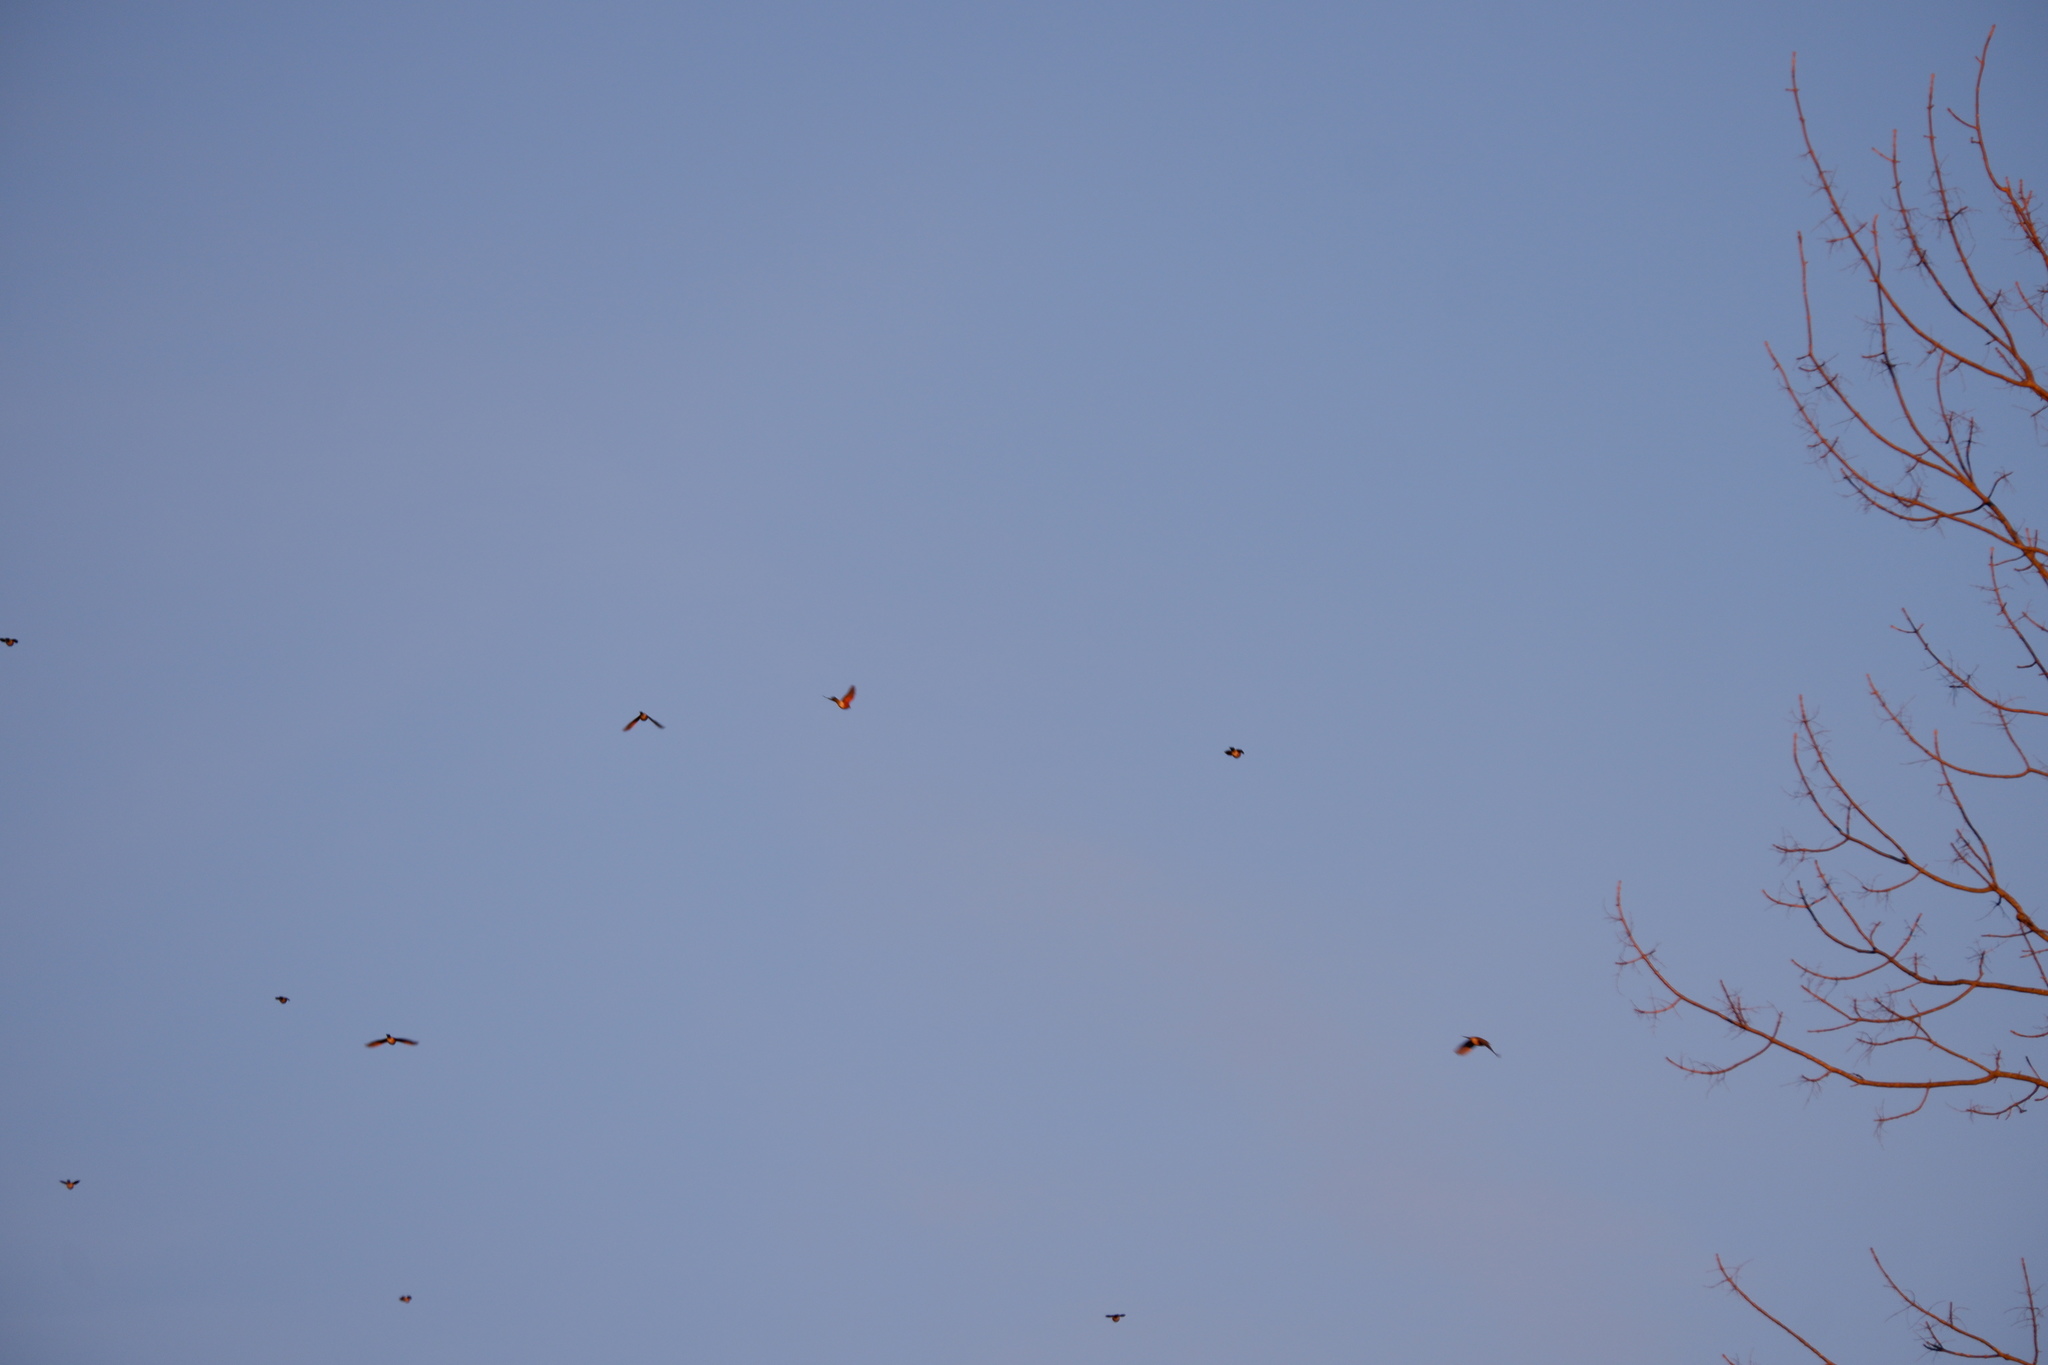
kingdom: Animalia
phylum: Chordata
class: Aves
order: Passeriformes
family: Turdidae
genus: Turdus
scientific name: Turdus migratorius
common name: American robin
